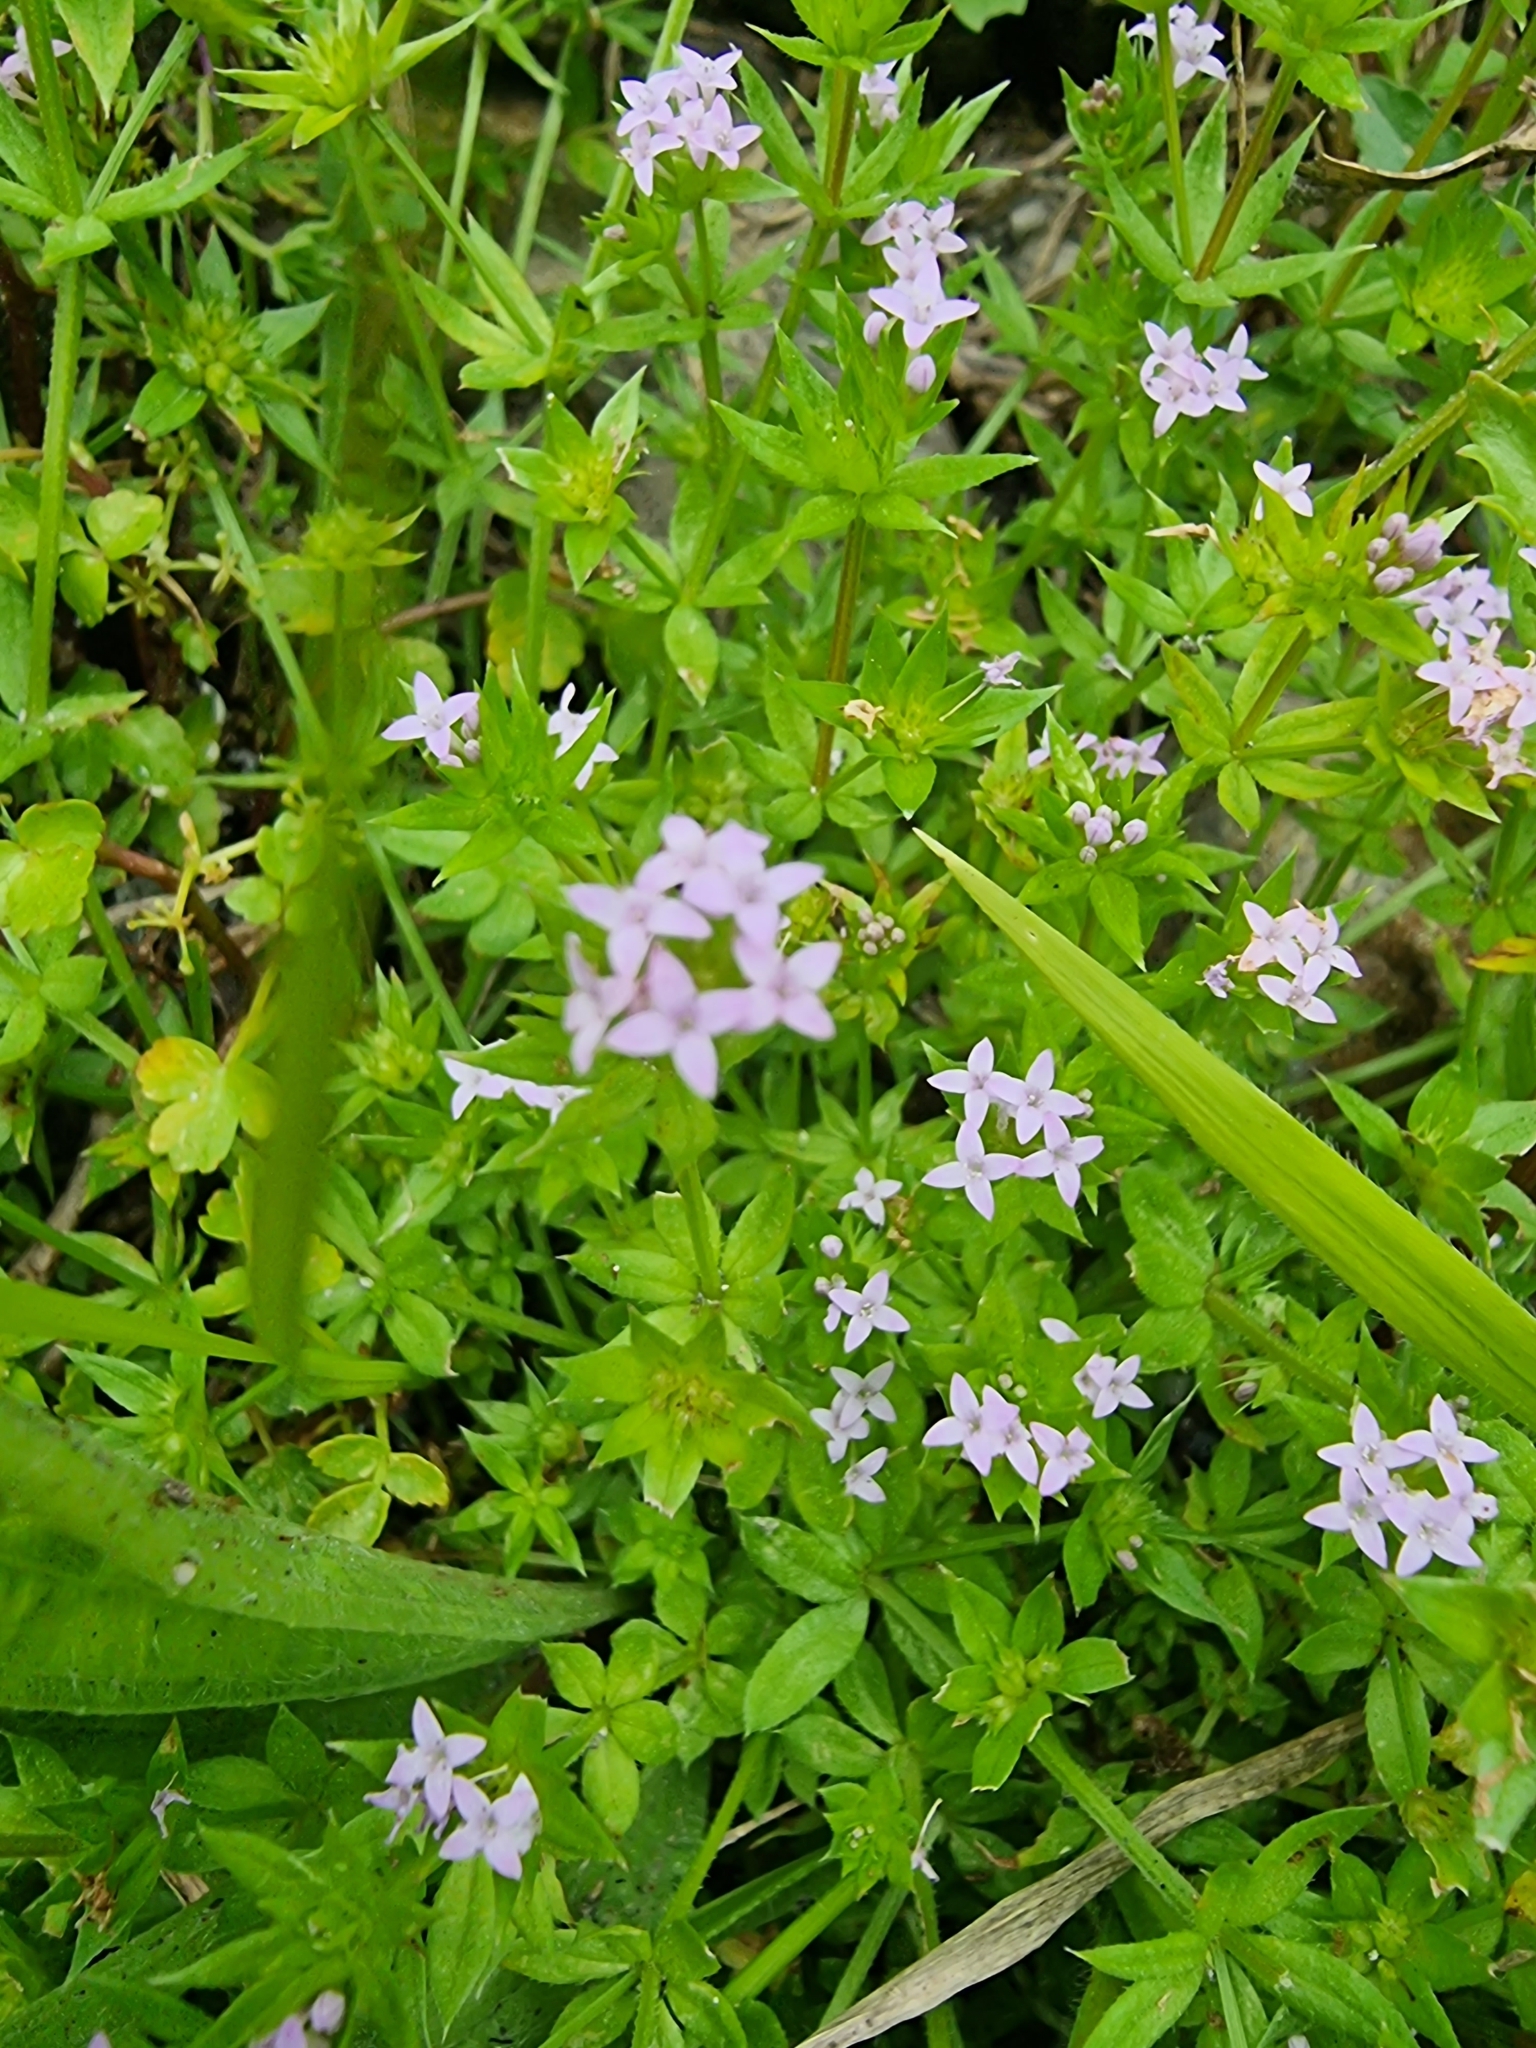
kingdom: Plantae
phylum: Tracheophyta
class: Magnoliopsida
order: Gentianales
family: Rubiaceae
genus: Sherardia
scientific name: Sherardia arvensis
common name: Field madder
